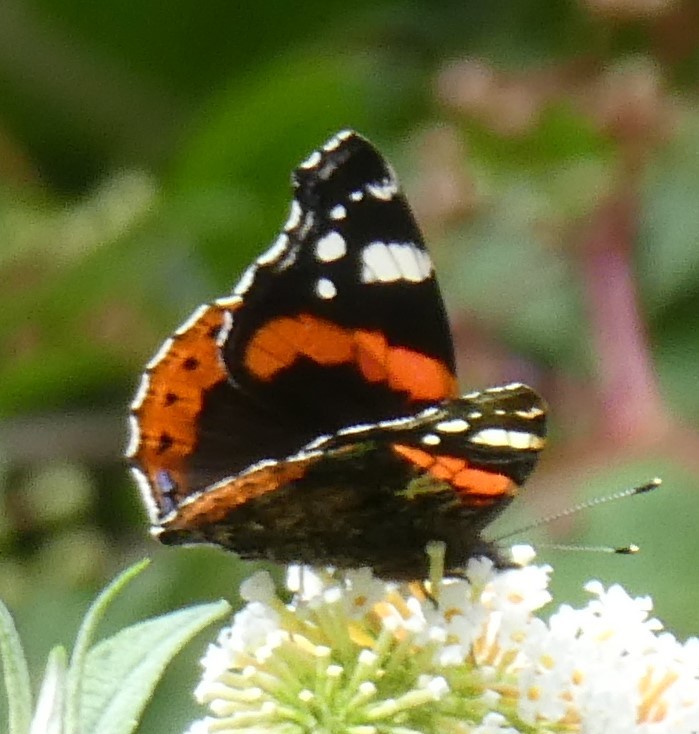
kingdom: Animalia
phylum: Arthropoda
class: Insecta
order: Lepidoptera
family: Nymphalidae
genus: Vanessa
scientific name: Vanessa atalanta
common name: Red admiral
